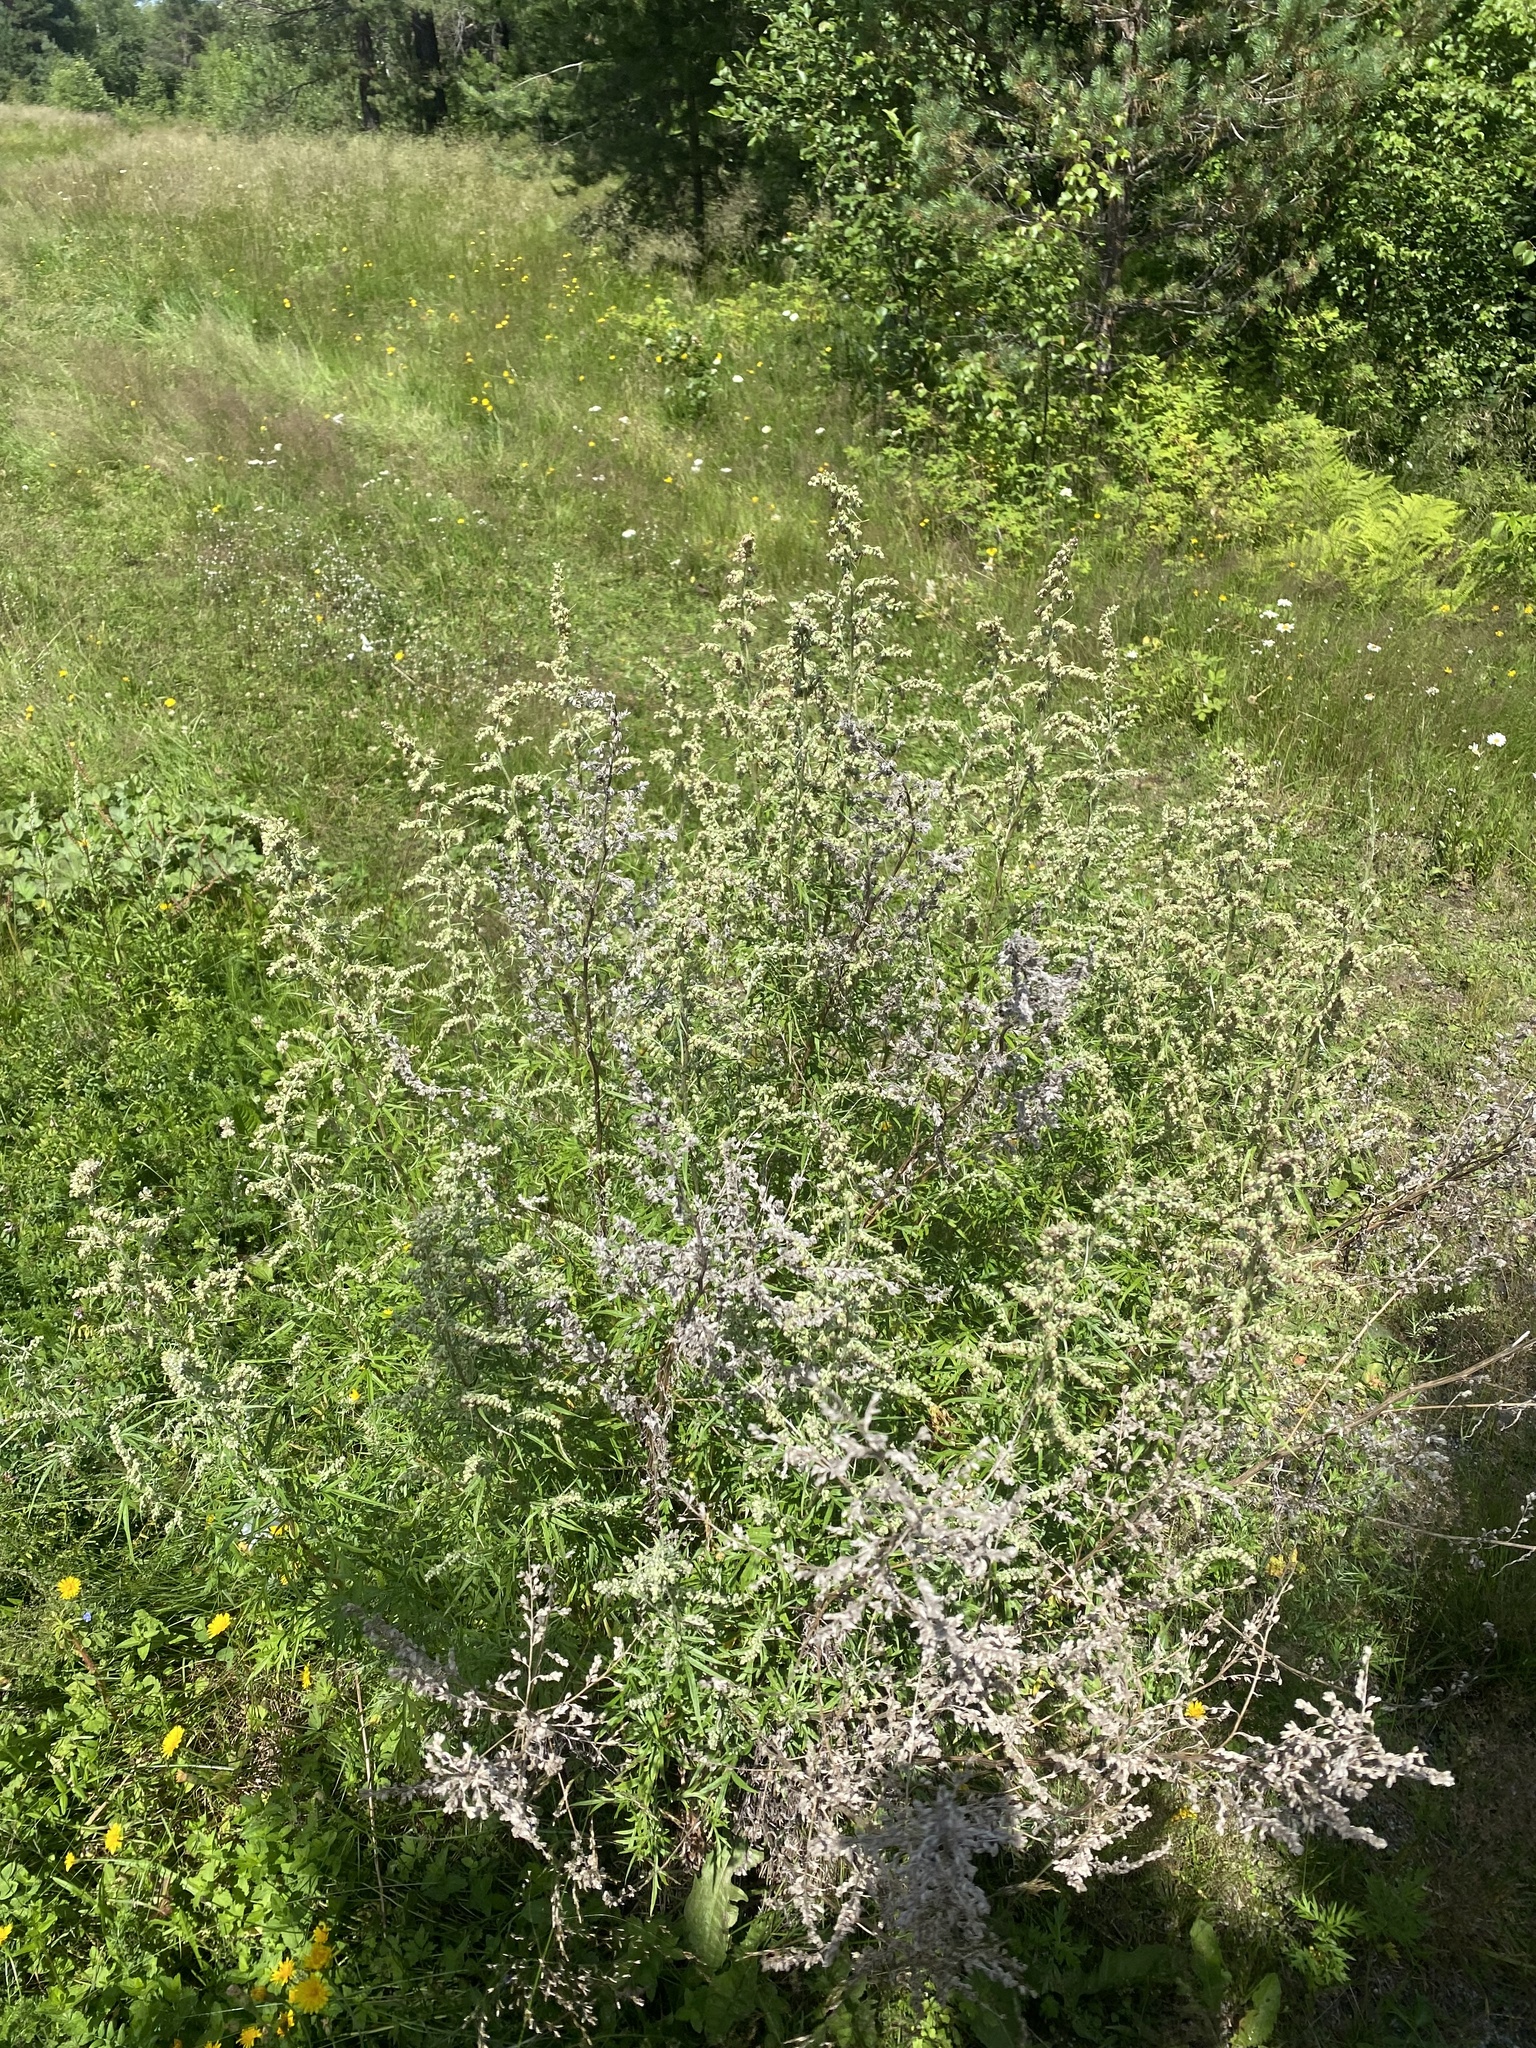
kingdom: Plantae
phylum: Tracheophyta
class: Magnoliopsida
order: Asterales
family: Asteraceae
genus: Artemisia
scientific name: Artemisia vulgaris
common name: Mugwort
